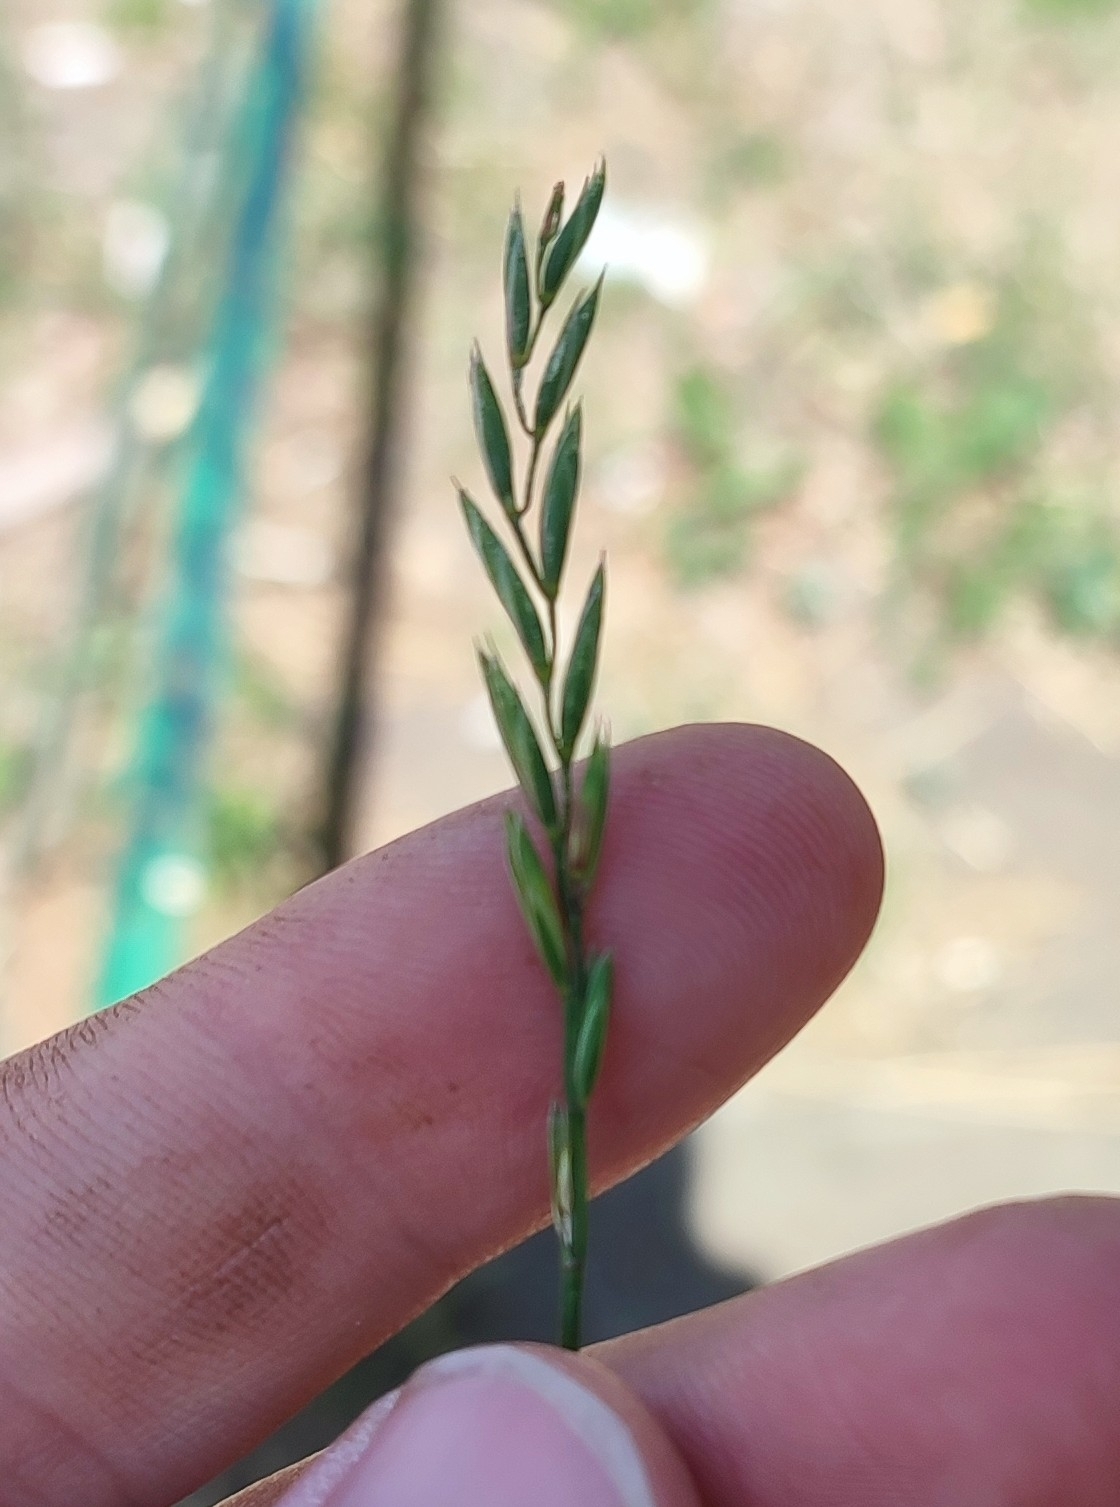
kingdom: Plantae
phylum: Tracheophyta
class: Liliopsida
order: Poales
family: Poaceae
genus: Elymus
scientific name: Elymus repens
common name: Quackgrass
